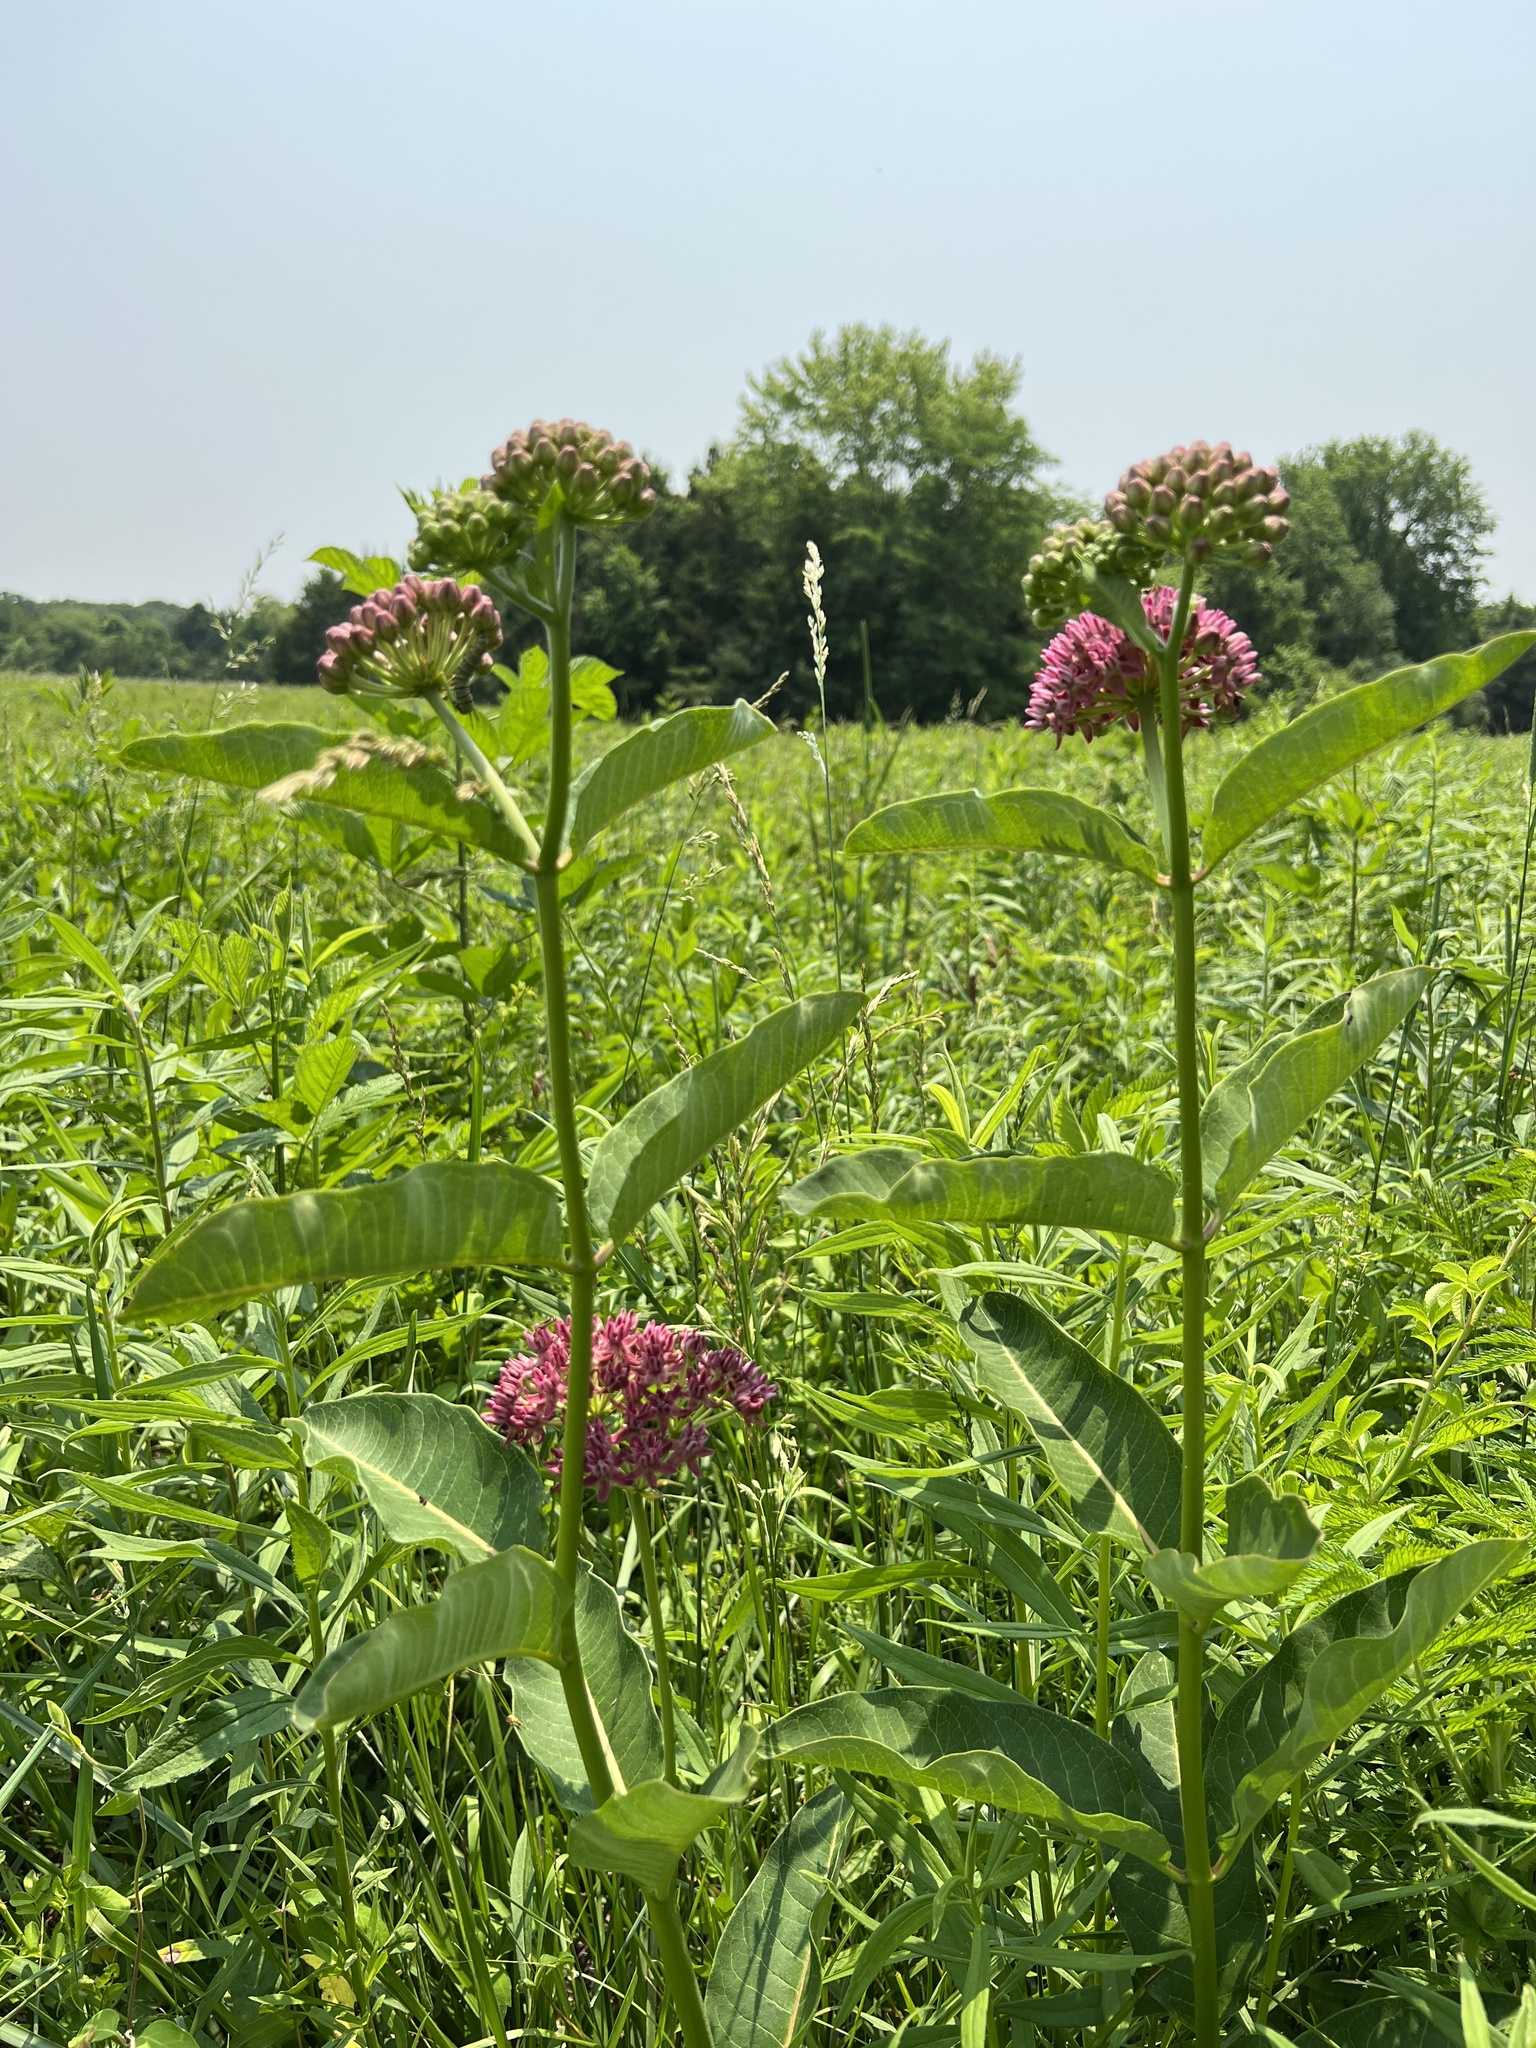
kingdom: Plantae
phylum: Tracheophyta
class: Magnoliopsida
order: Gentianales
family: Apocynaceae
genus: Asclepias
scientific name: Asclepias purpurascens
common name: Purple milkweed
